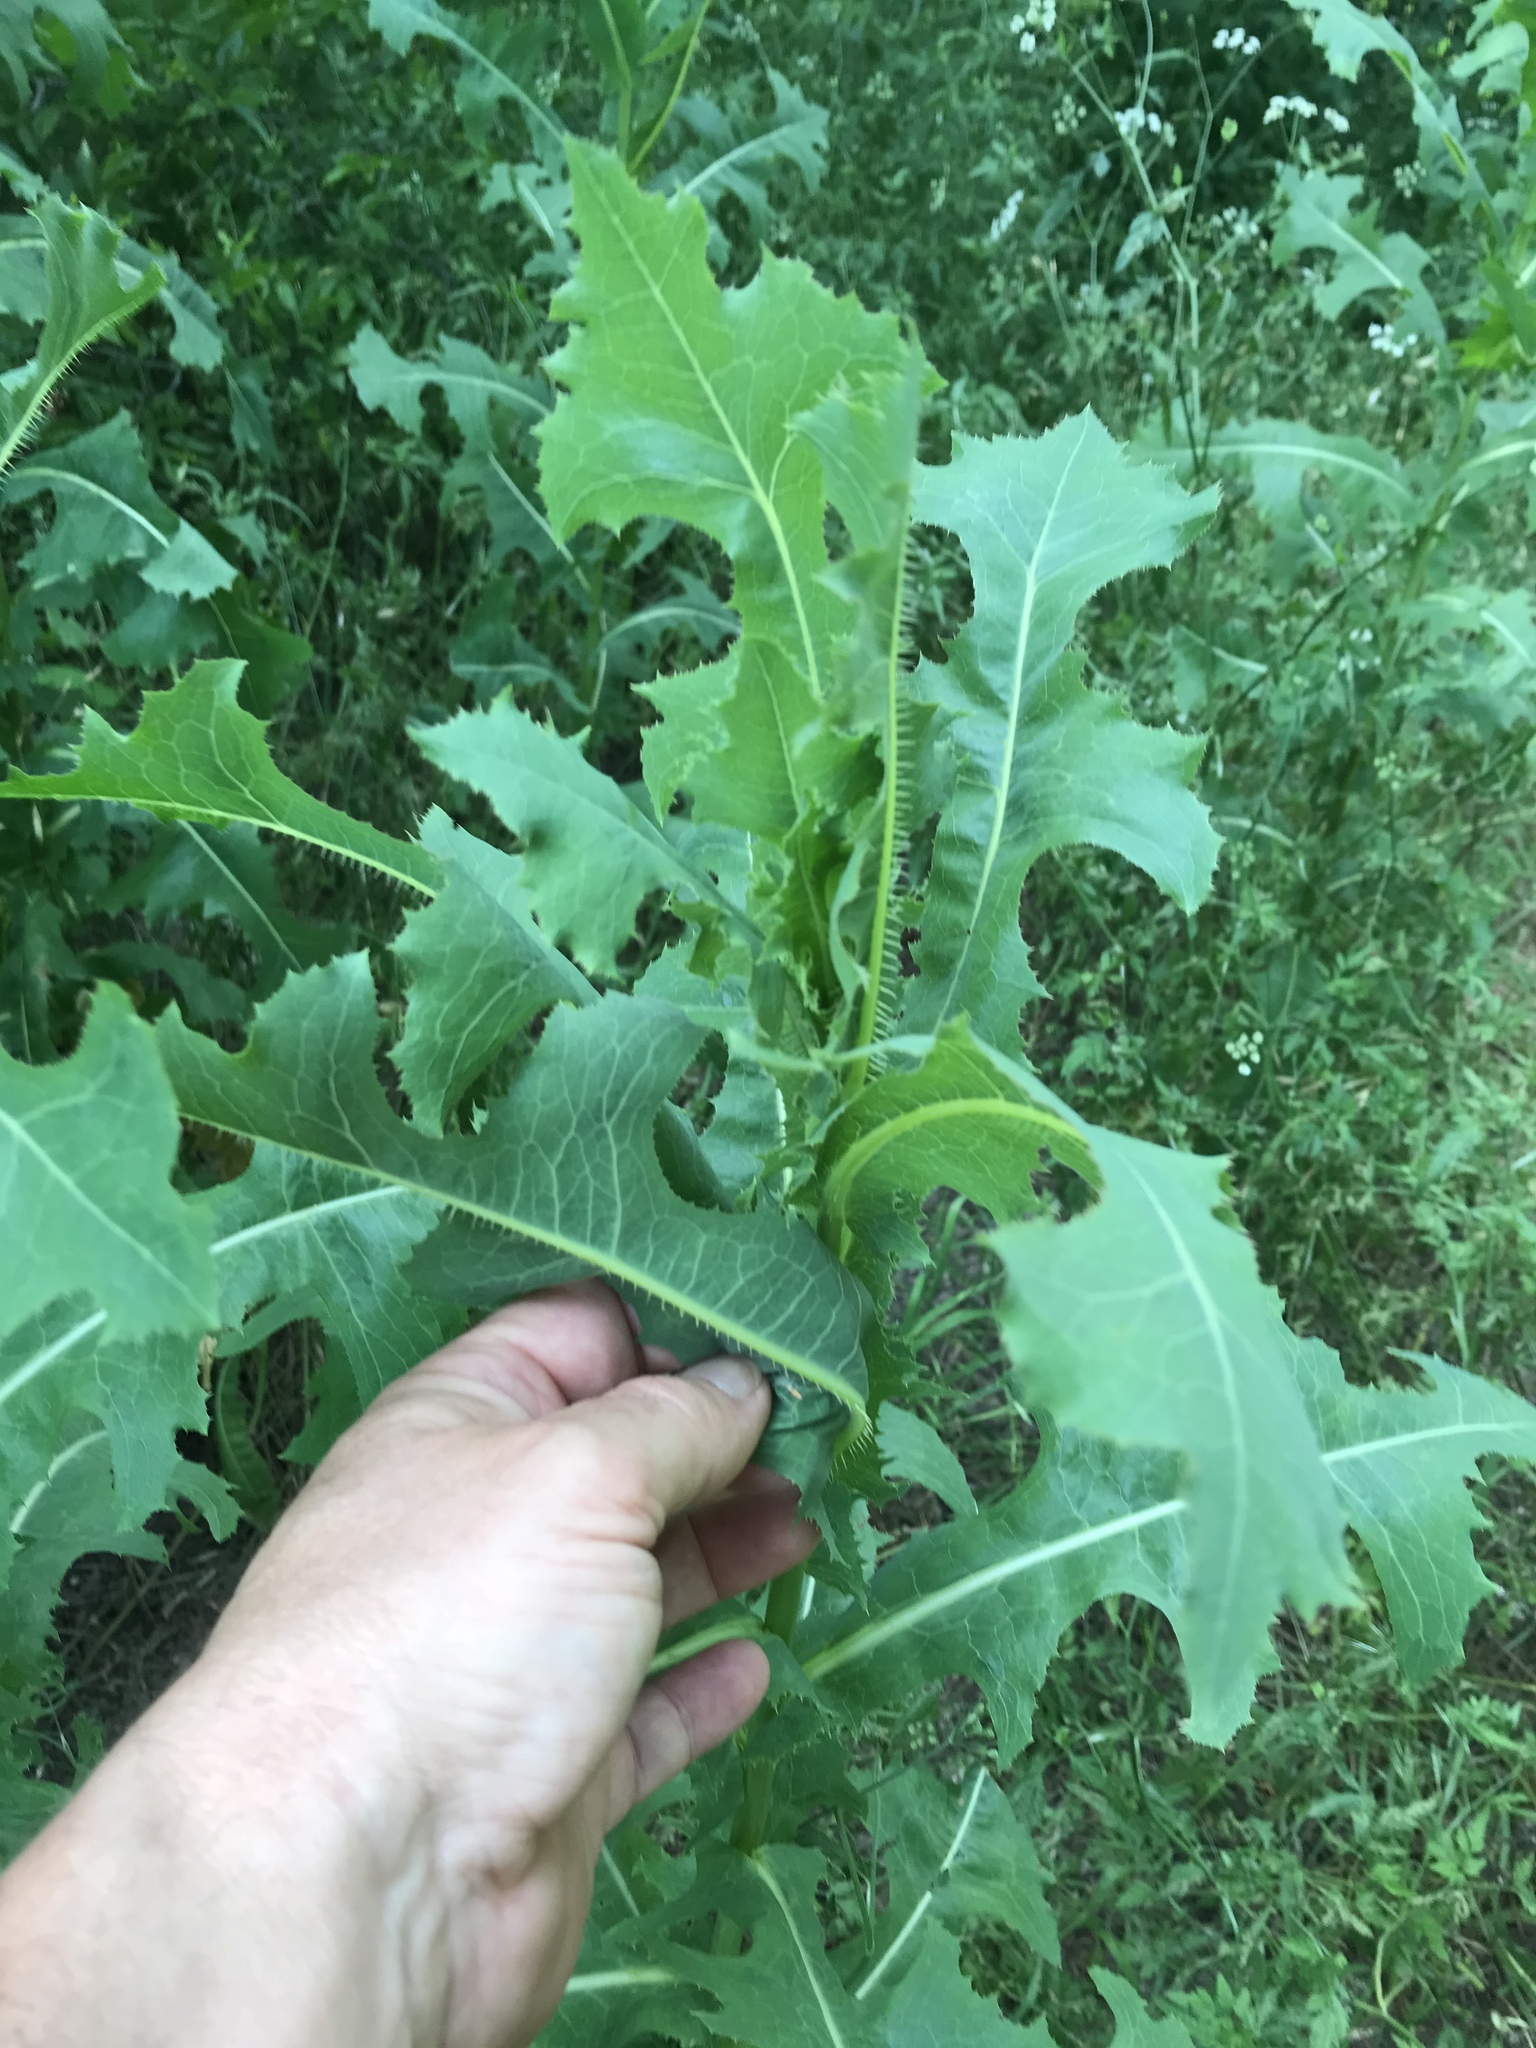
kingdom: Plantae
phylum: Tracheophyta
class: Magnoliopsida
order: Asterales
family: Asteraceae
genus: Lactuca
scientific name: Lactuca serriola
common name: Prickly lettuce
